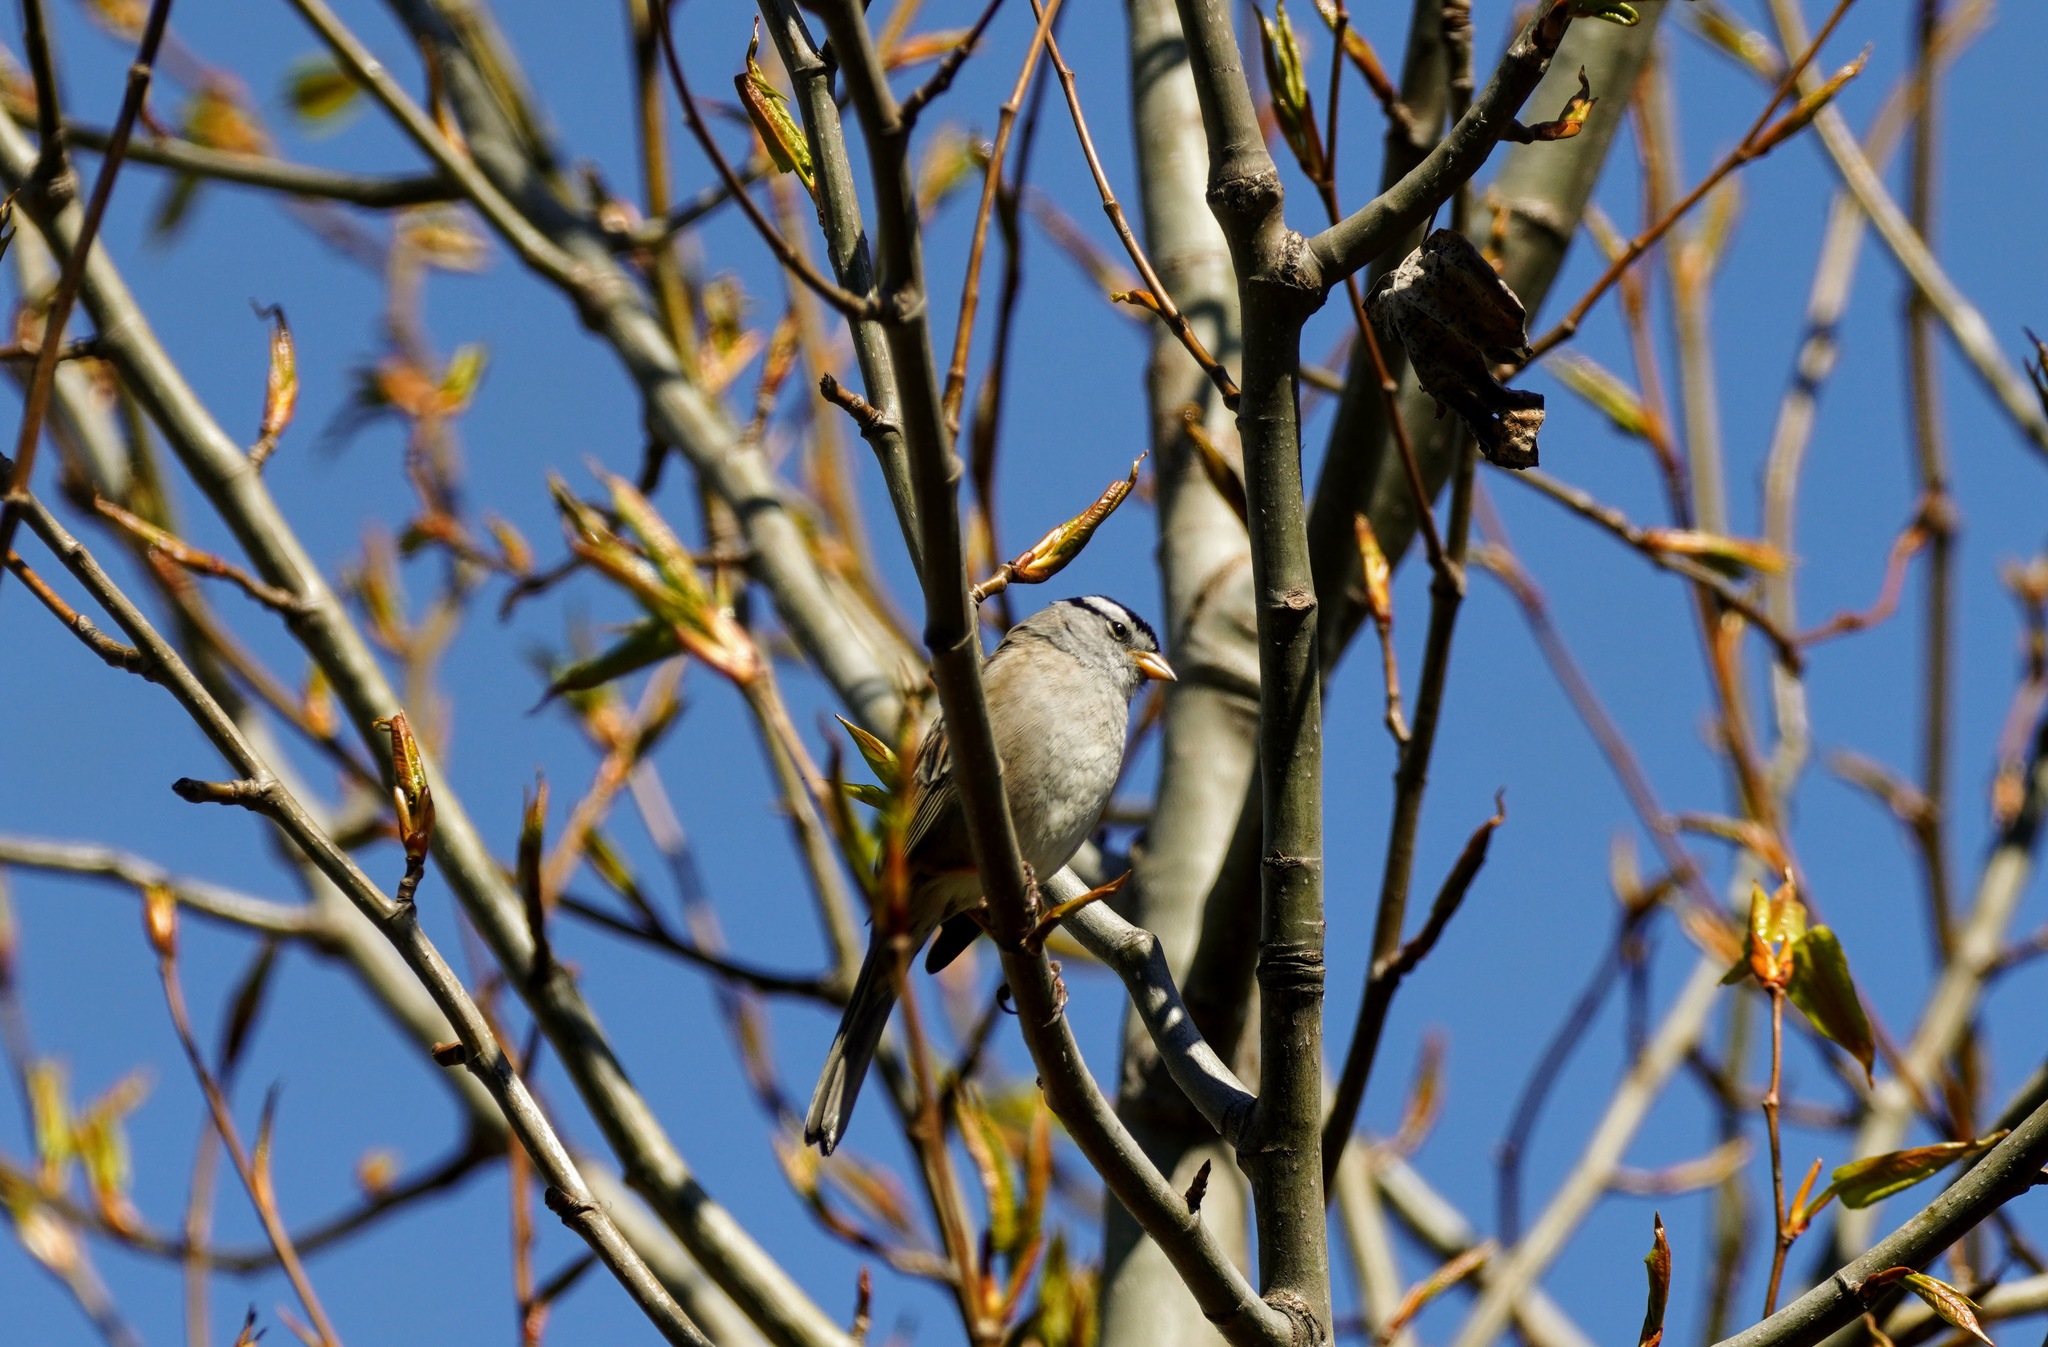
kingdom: Animalia
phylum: Chordata
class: Aves
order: Passeriformes
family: Passerellidae
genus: Zonotrichia
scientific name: Zonotrichia leucophrys
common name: White-crowned sparrow
